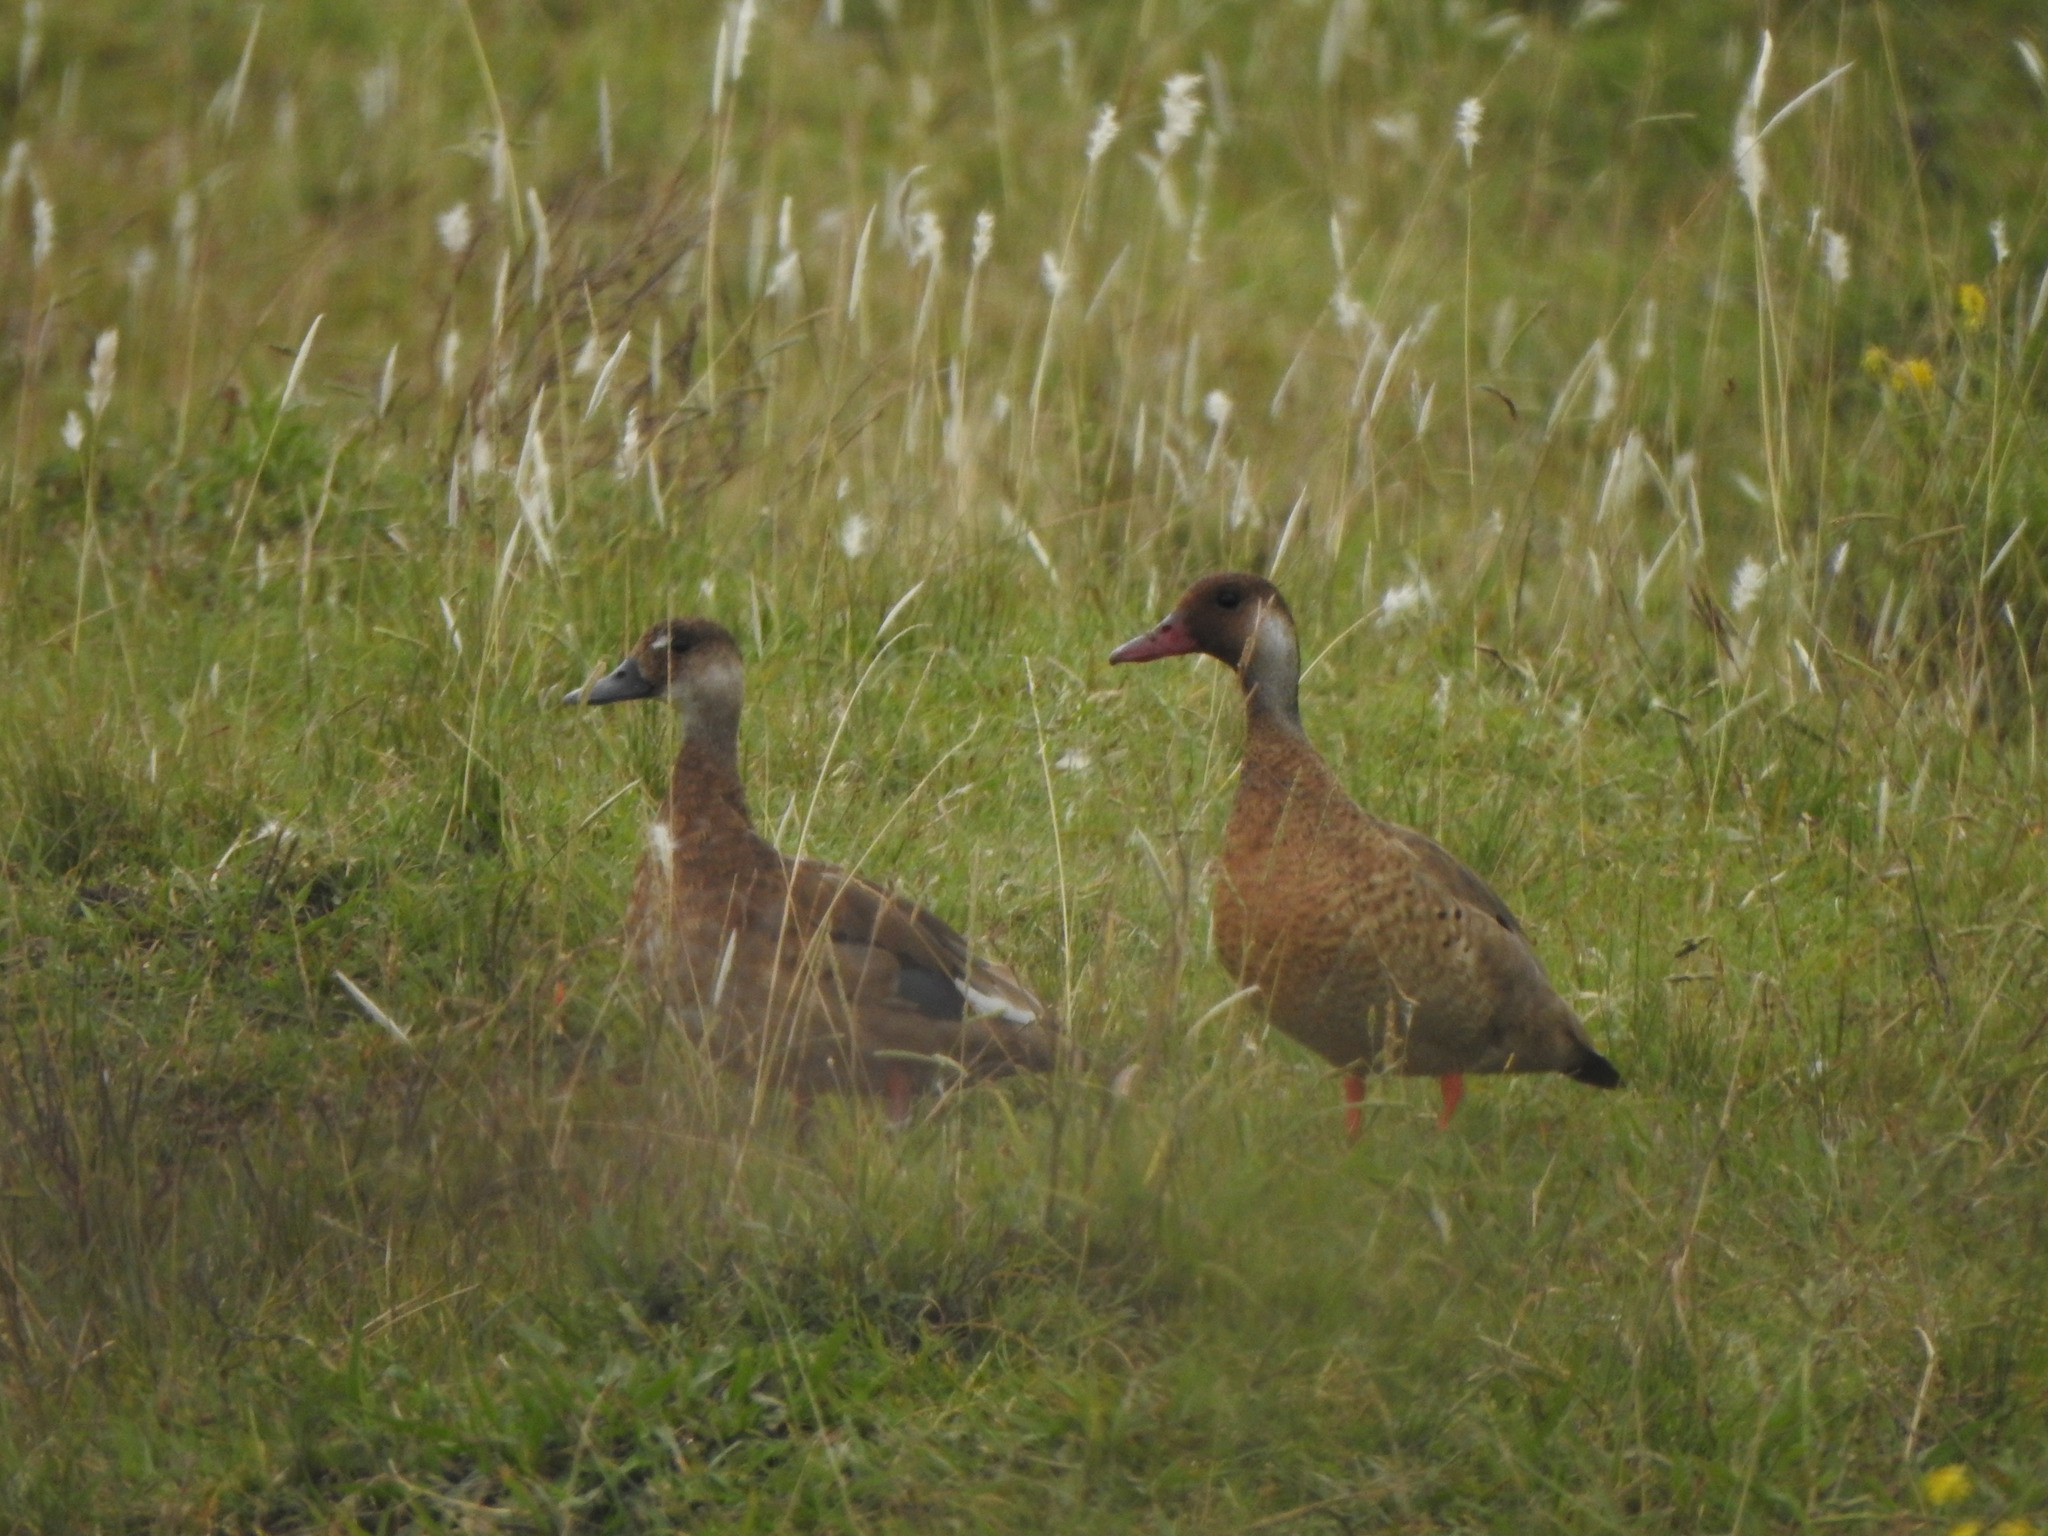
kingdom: Animalia
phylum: Chordata
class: Aves
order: Anseriformes
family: Anatidae
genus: Amazonetta
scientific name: Amazonetta brasiliensis
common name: Brazilian teal
